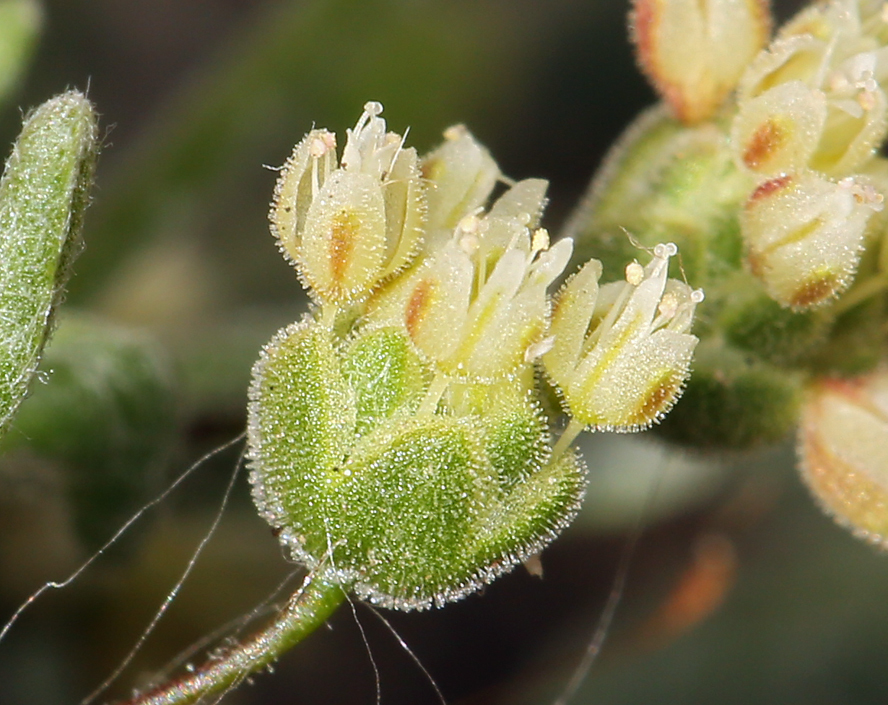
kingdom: Plantae
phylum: Tracheophyta
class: Magnoliopsida
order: Caryophyllales
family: Polygonaceae
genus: Eriogonum
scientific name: Eriogonum maculatum
